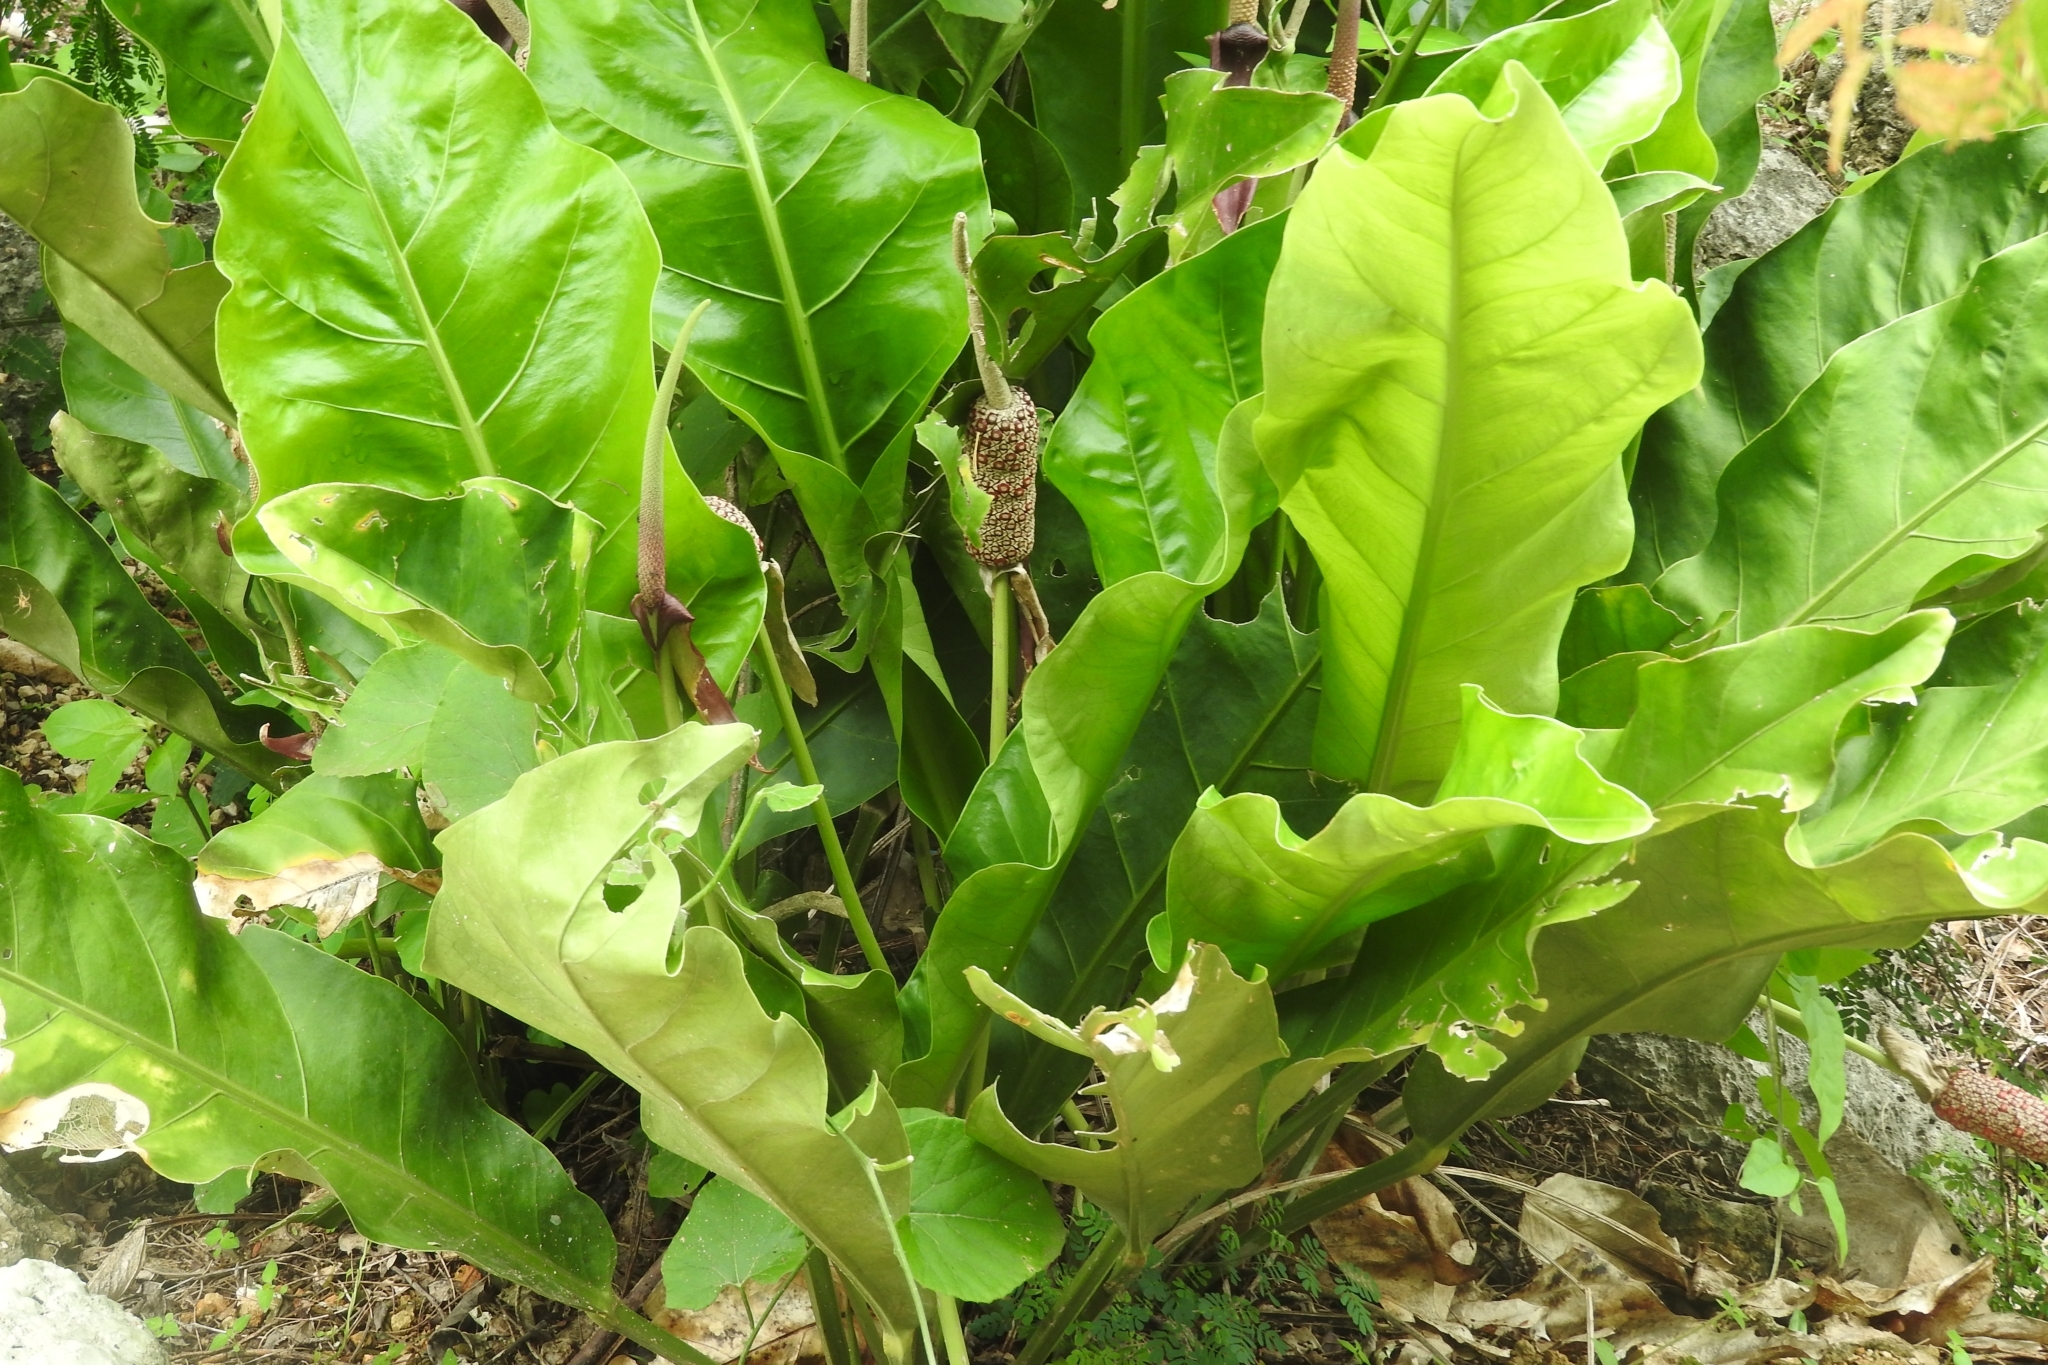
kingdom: Plantae
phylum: Tracheophyta
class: Liliopsida
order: Alismatales
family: Araceae
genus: Anthurium
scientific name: Anthurium schlechtendalii
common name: Laceleaf
